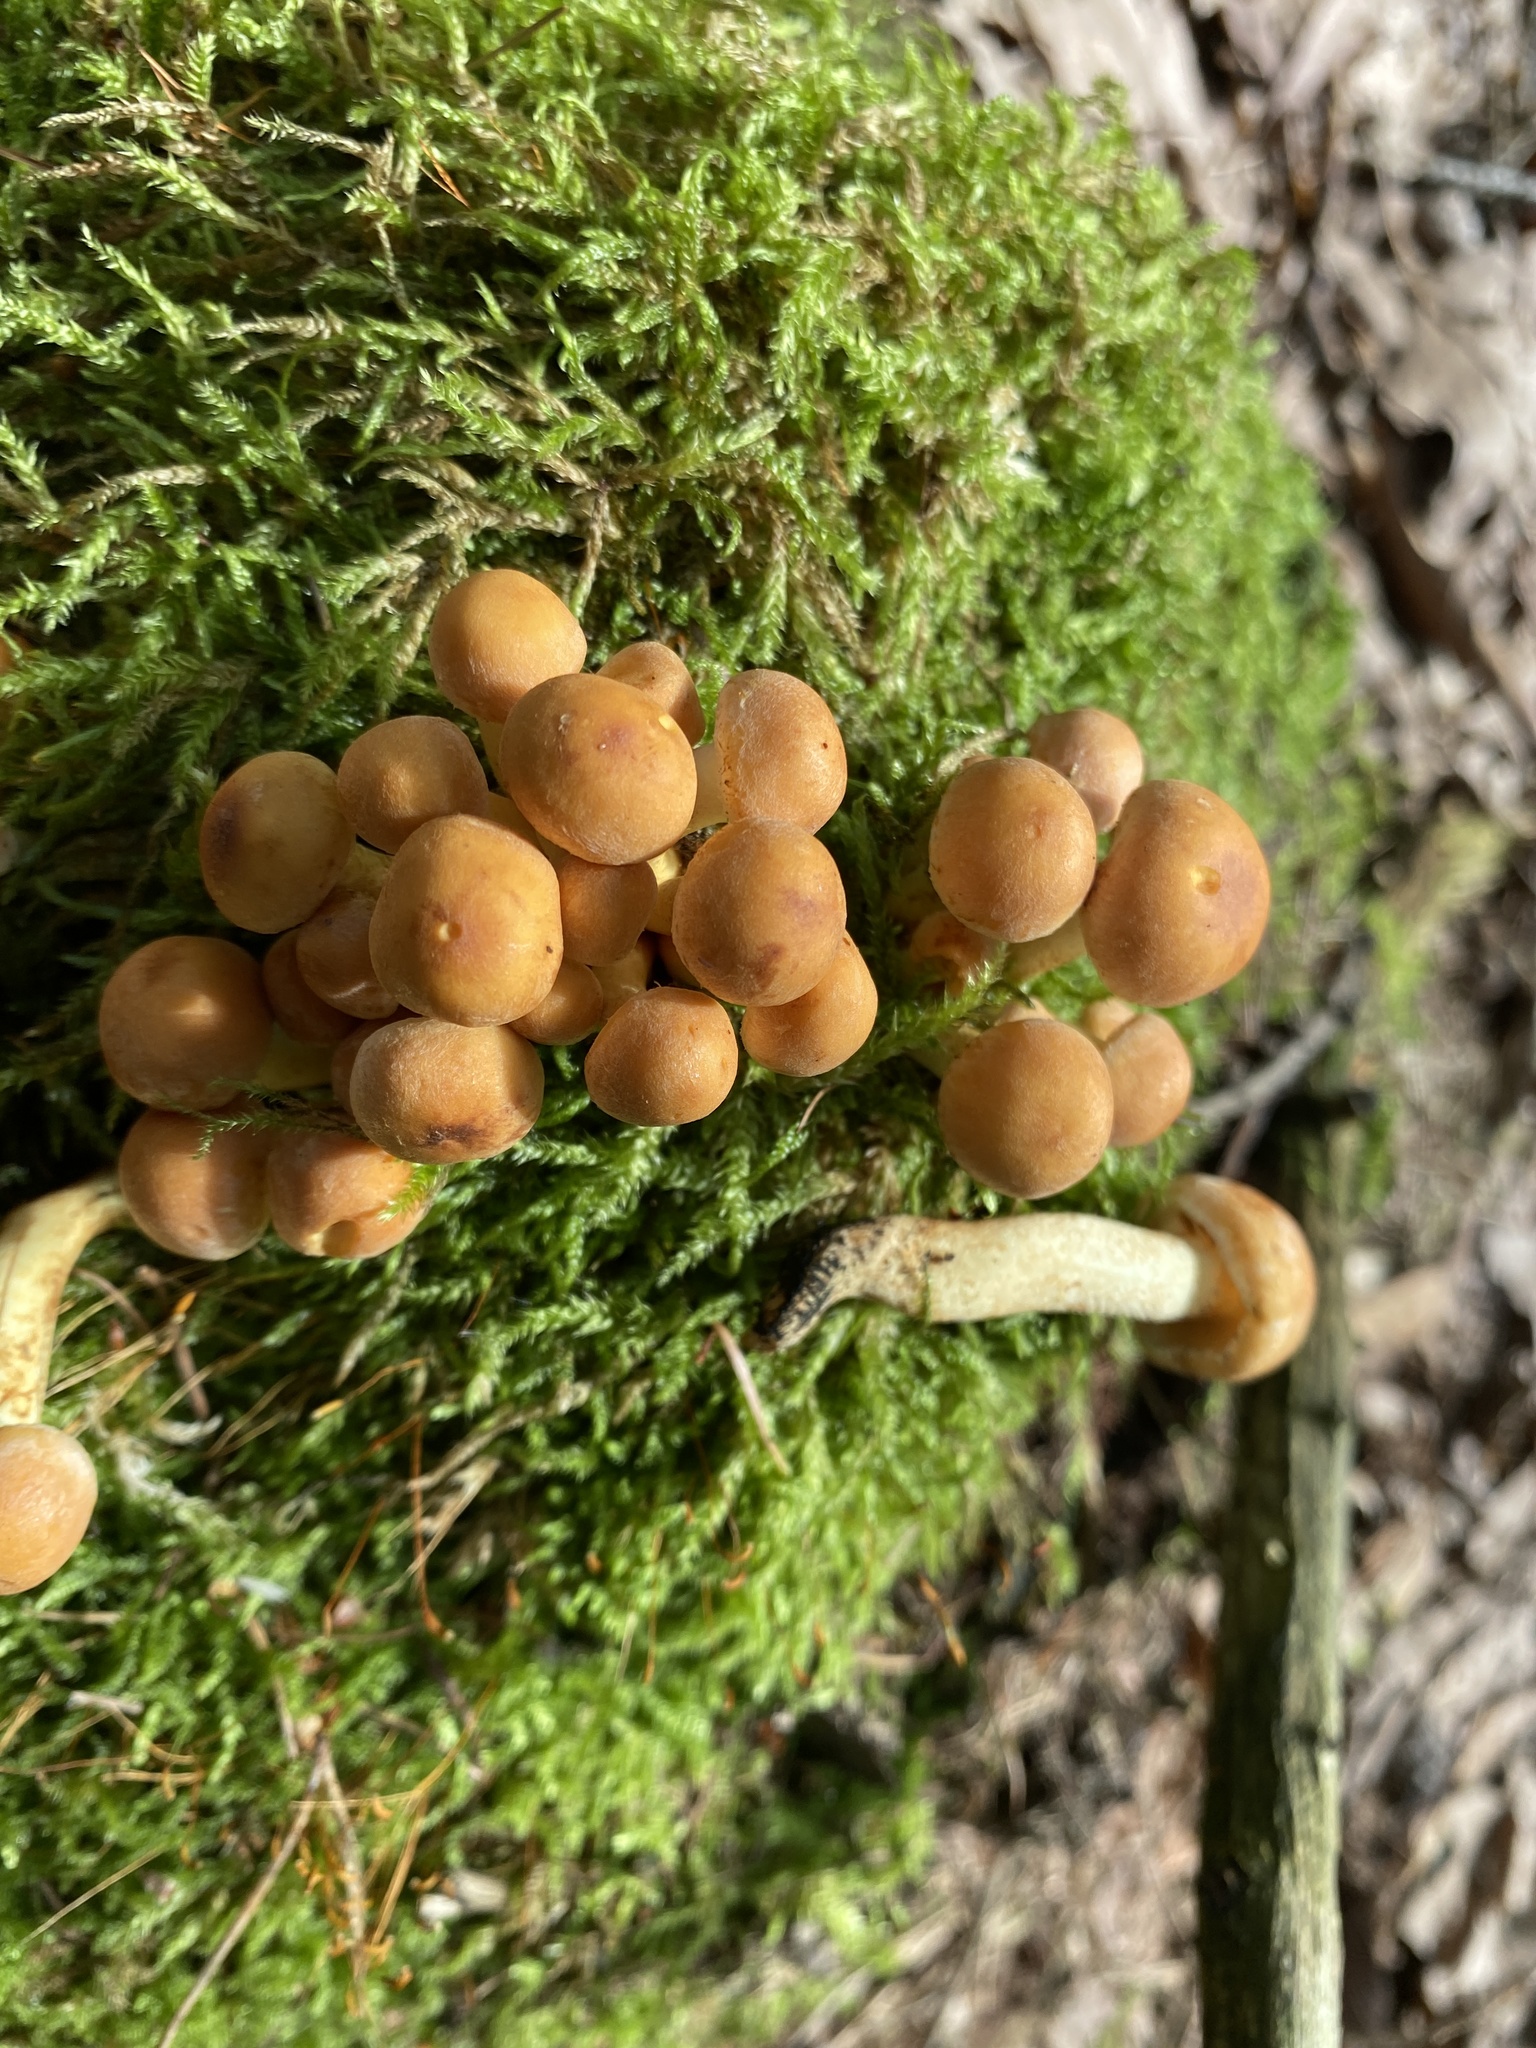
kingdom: Fungi
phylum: Basidiomycota
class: Agaricomycetes
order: Agaricales
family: Strophariaceae
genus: Hypholoma
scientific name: Hypholoma fasciculare
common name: Sulphur tuft
